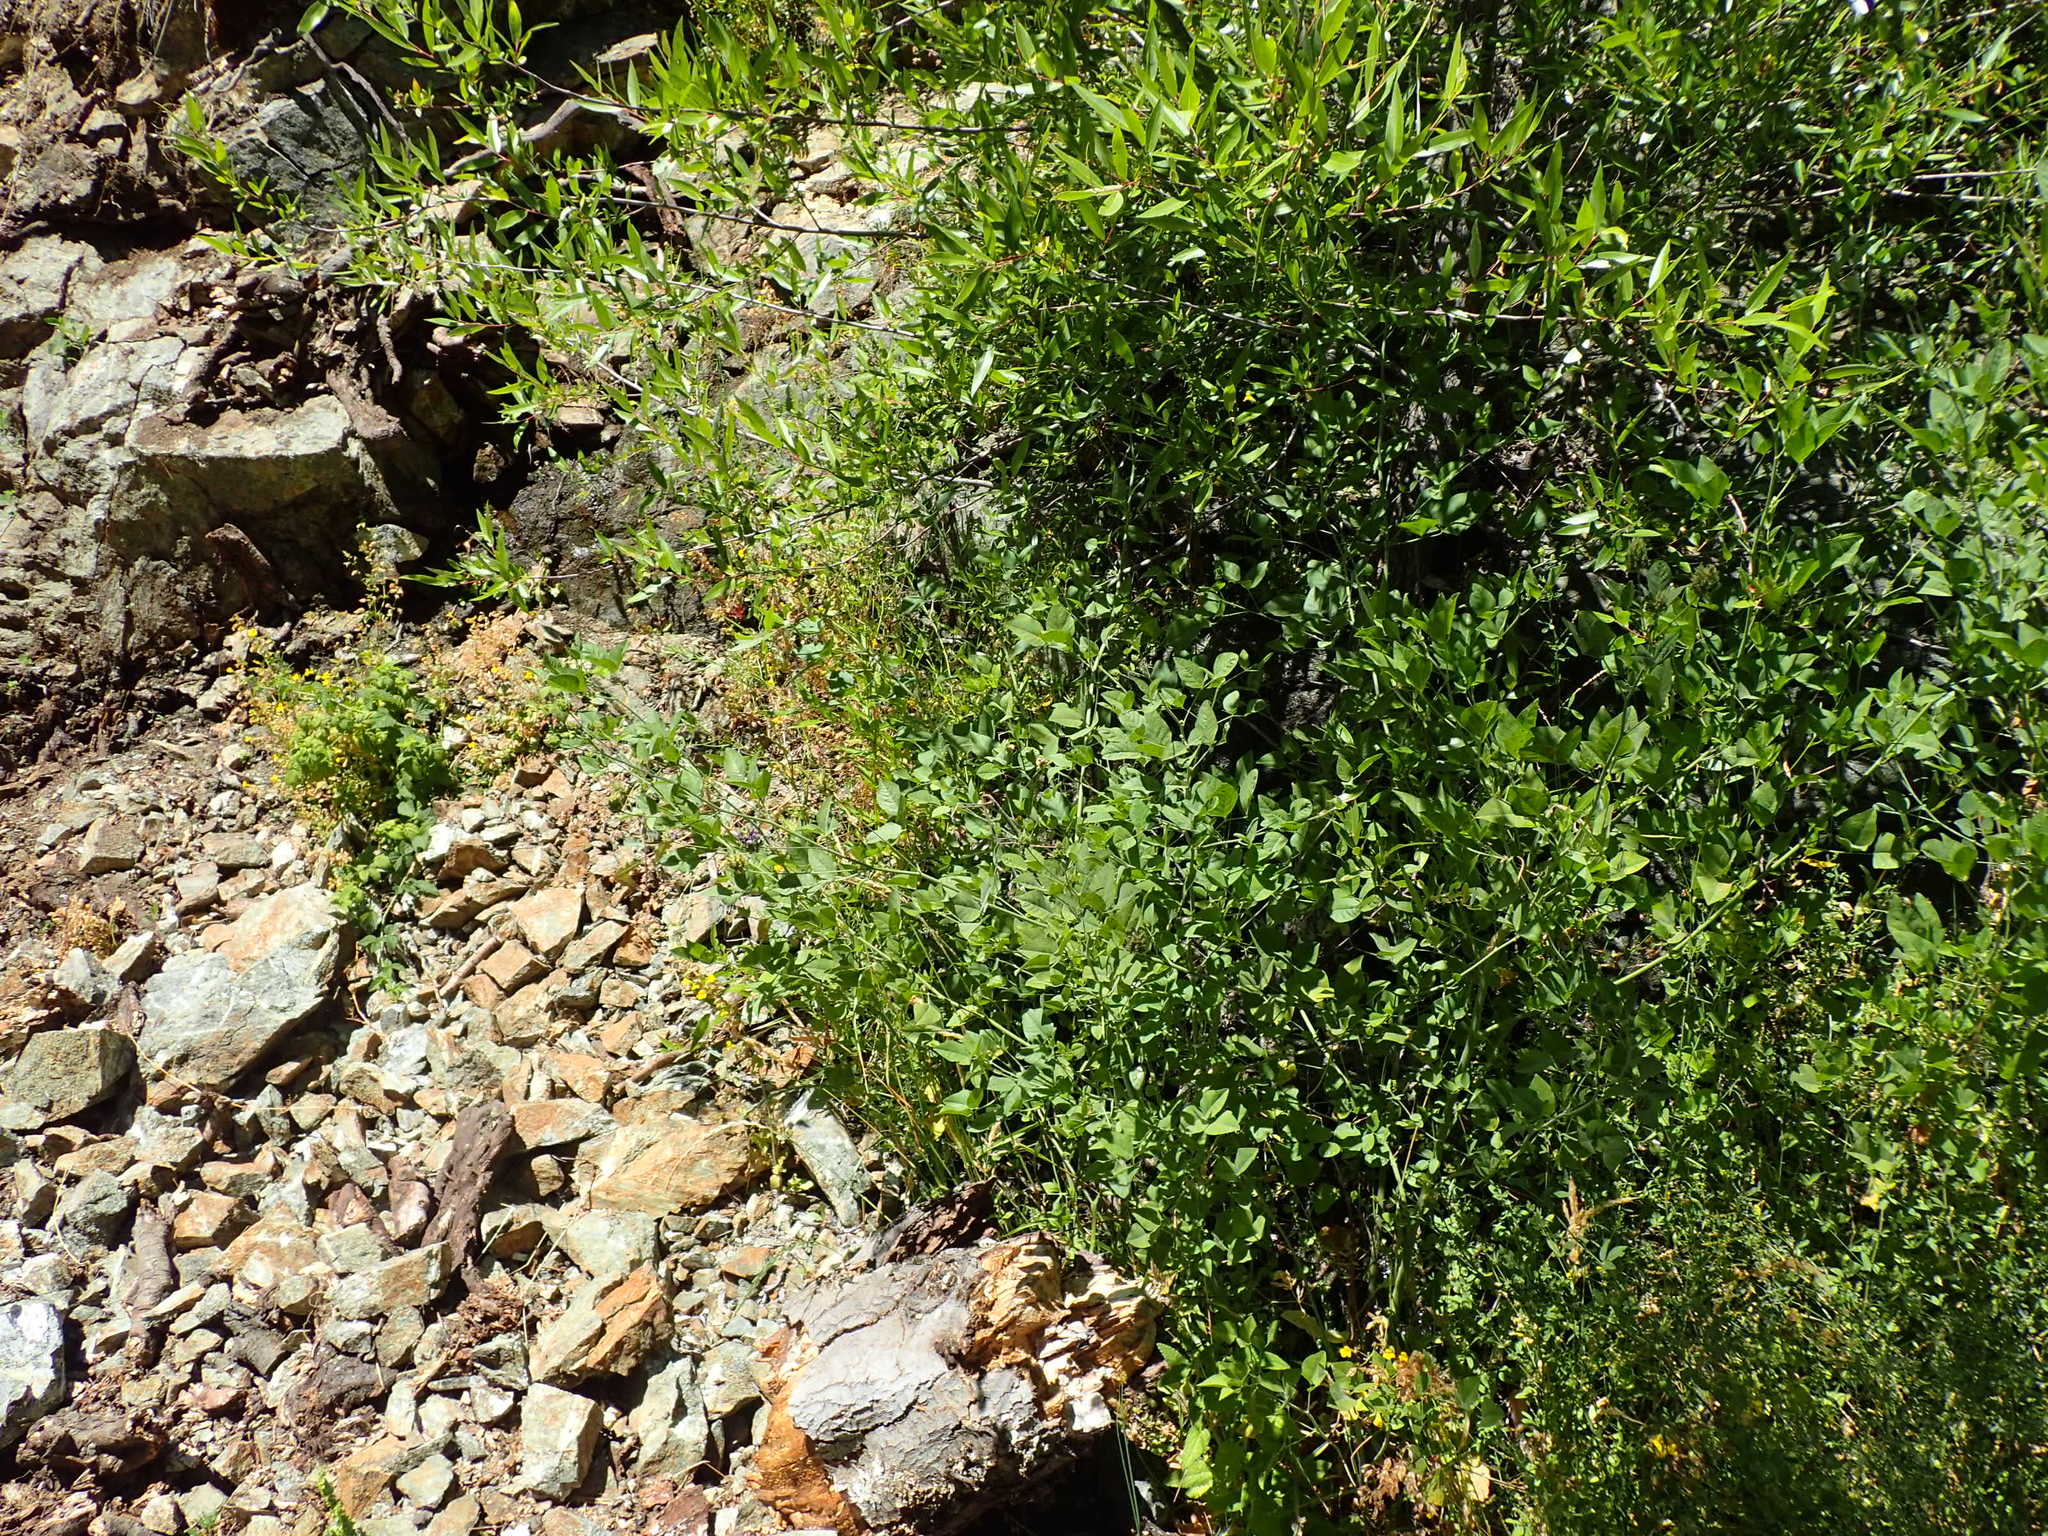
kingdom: Plantae
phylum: Tracheophyta
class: Magnoliopsida
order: Fabales
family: Fabaceae
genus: Hoita
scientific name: Hoita macrostachya
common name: Leatherroot
